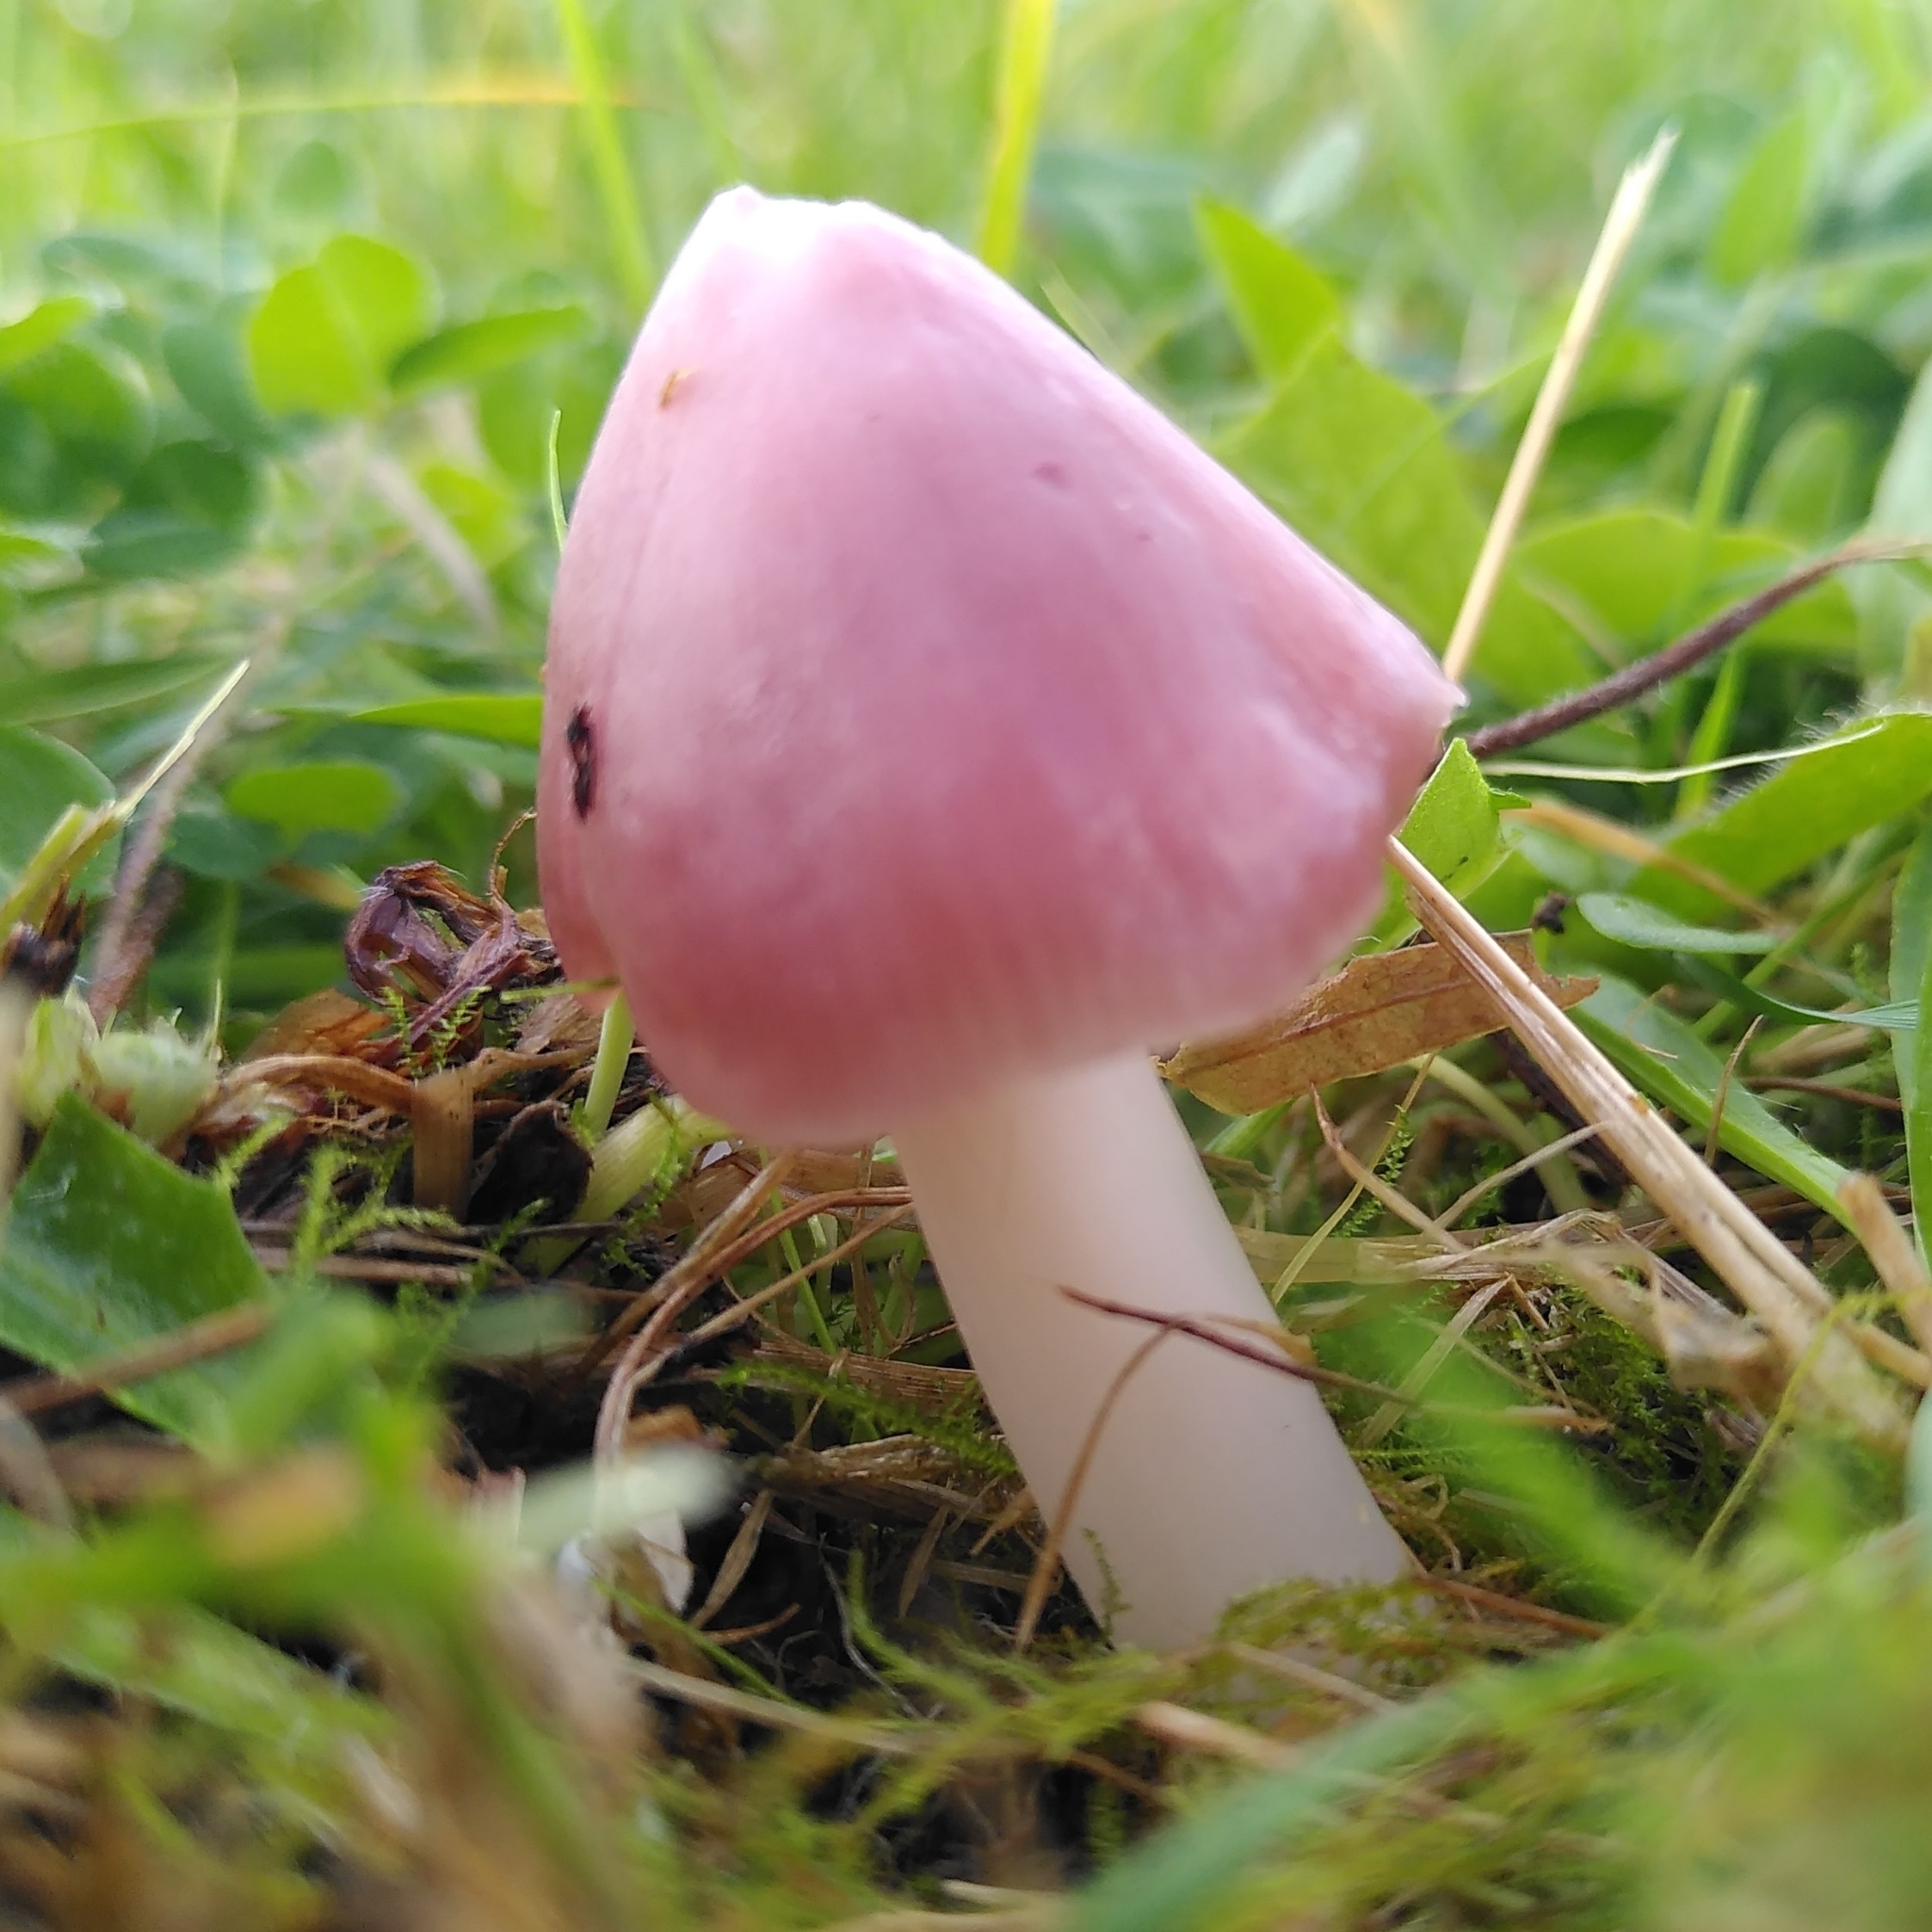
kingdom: Fungi
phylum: Basidiomycota
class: Agaricomycetes
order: Agaricales
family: Hygrophoraceae
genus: Porpolomopsis
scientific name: Porpolomopsis calyptriformis
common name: Pink waxcap
